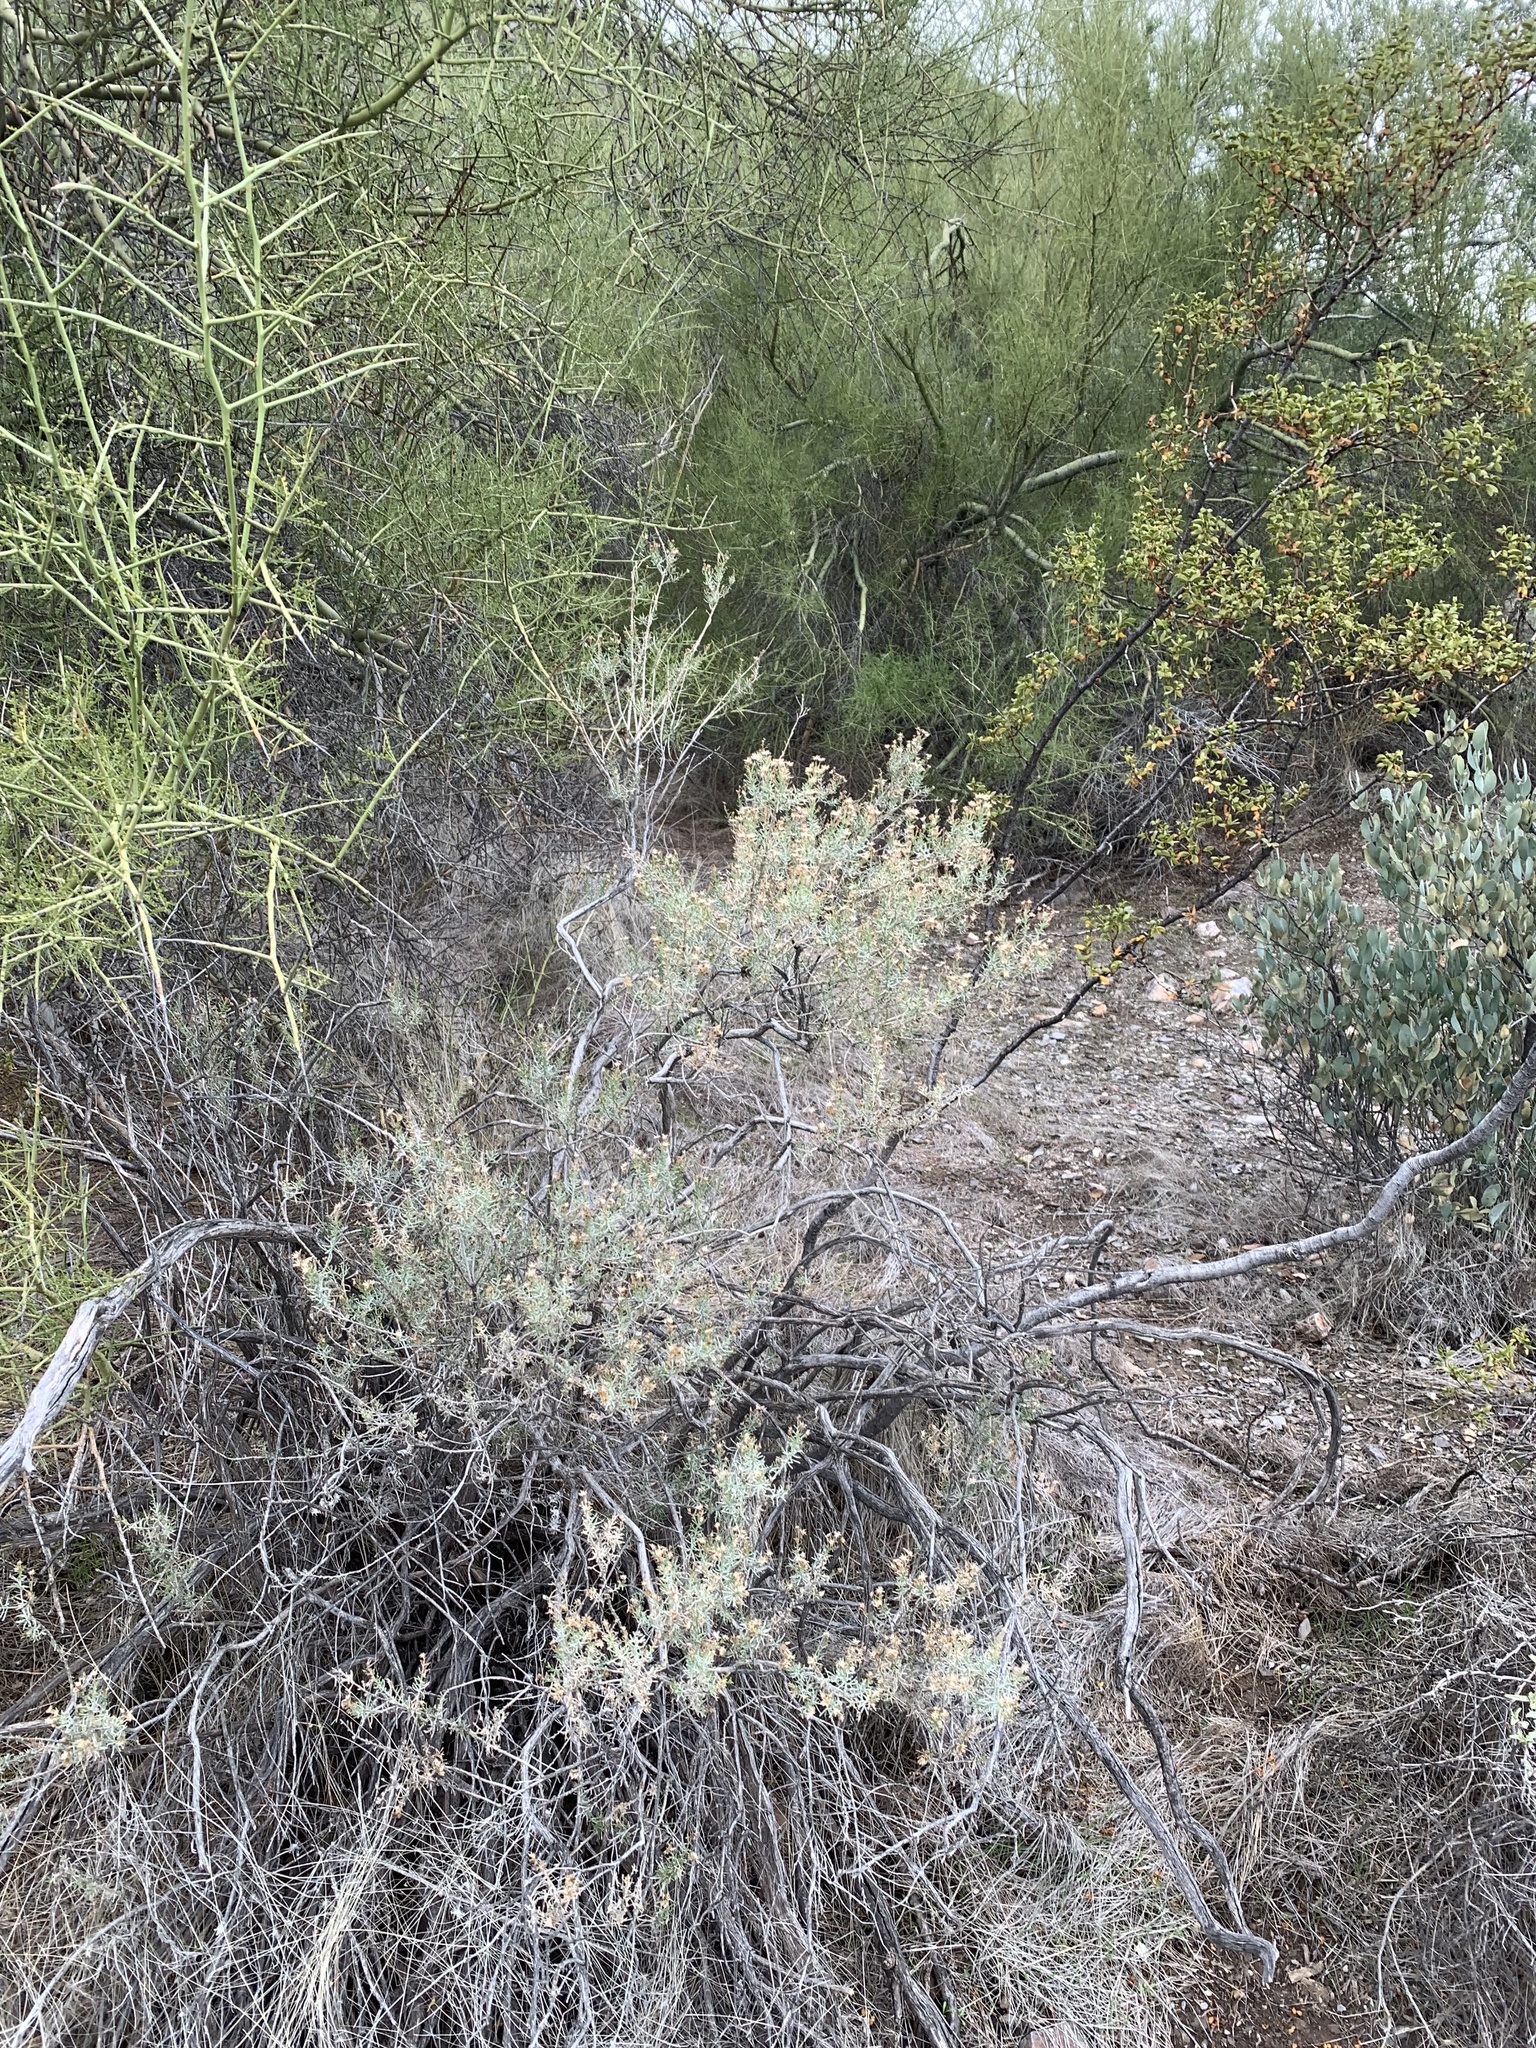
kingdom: Plantae
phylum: Tracheophyta
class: Magnoliopsida
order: Asterales
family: Asteraceae
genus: Ericameria
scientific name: Ericameria laricifolia
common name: Turpentine-bush
